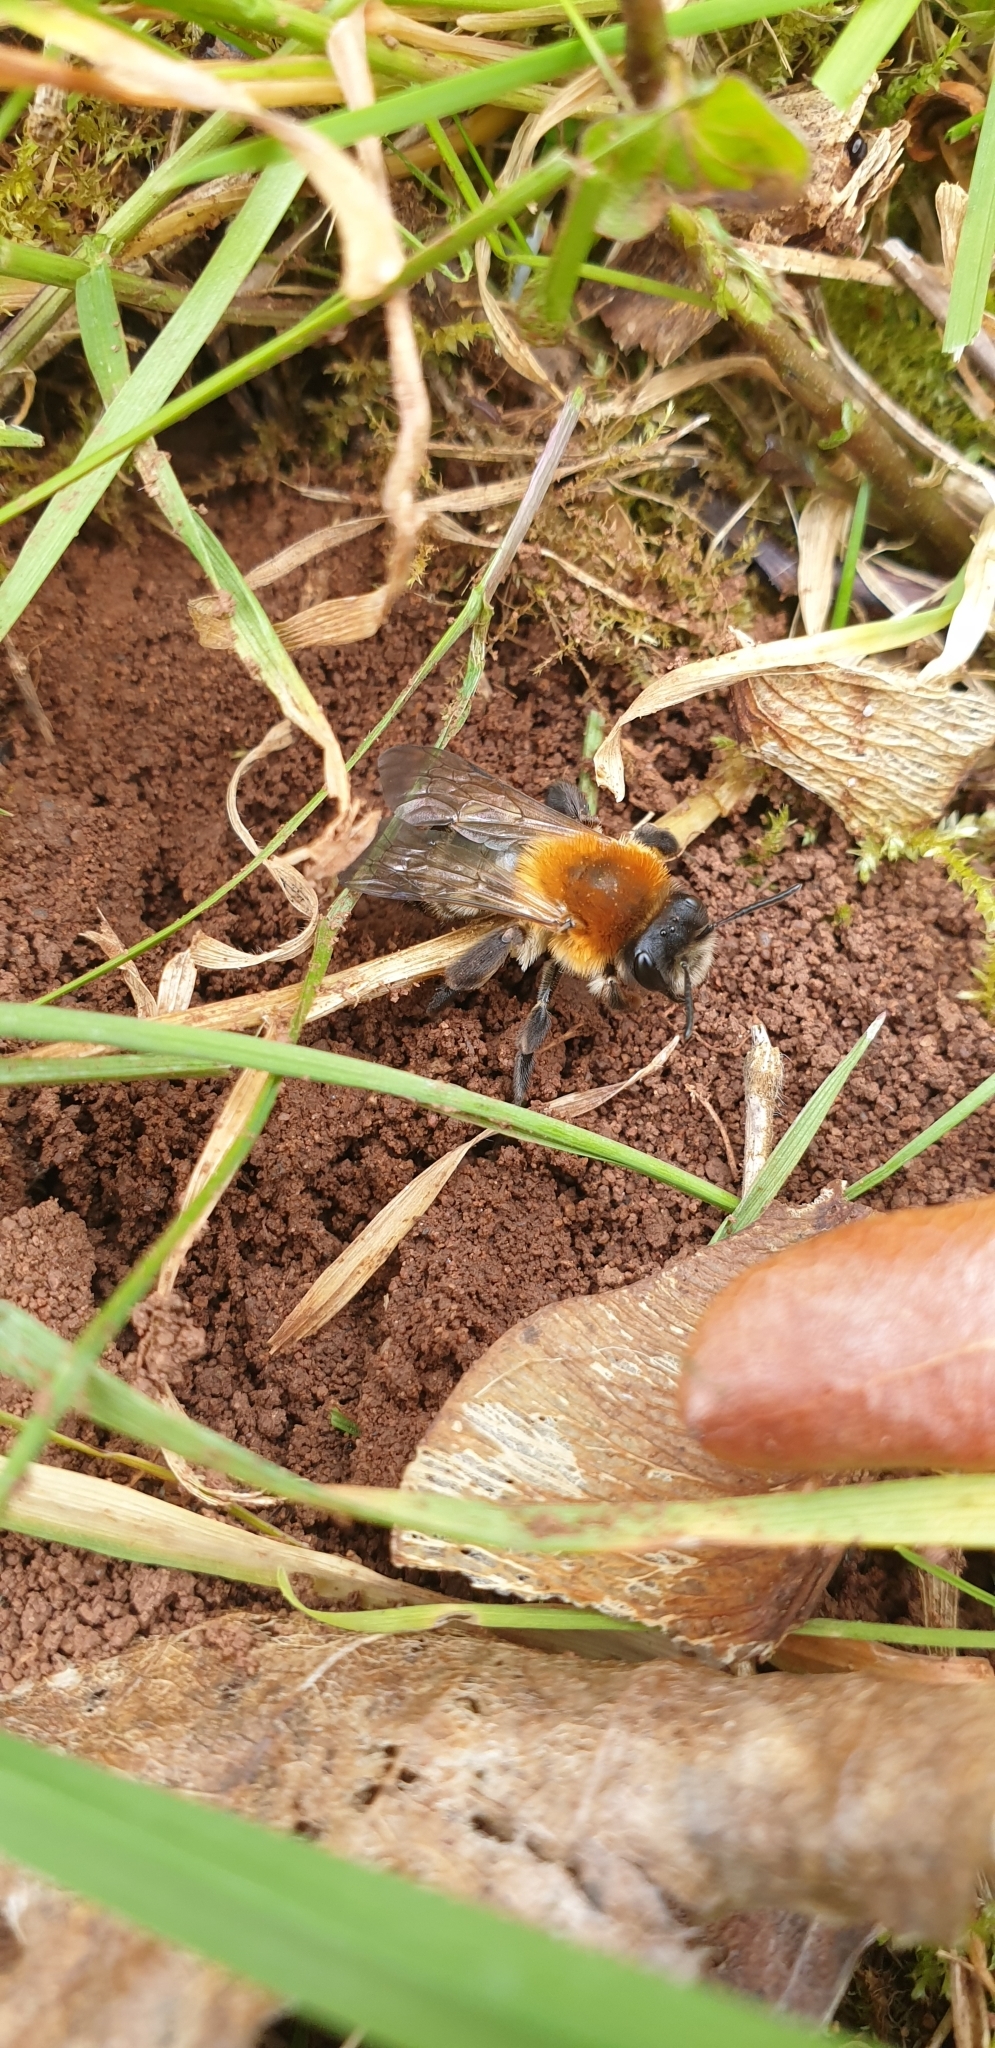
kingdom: Animalia
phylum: Arthropoda
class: Insecta
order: Hymenoptera
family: Andrenidae
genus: Andrena
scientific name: Andrena nitida
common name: Grey-patched mining bee
